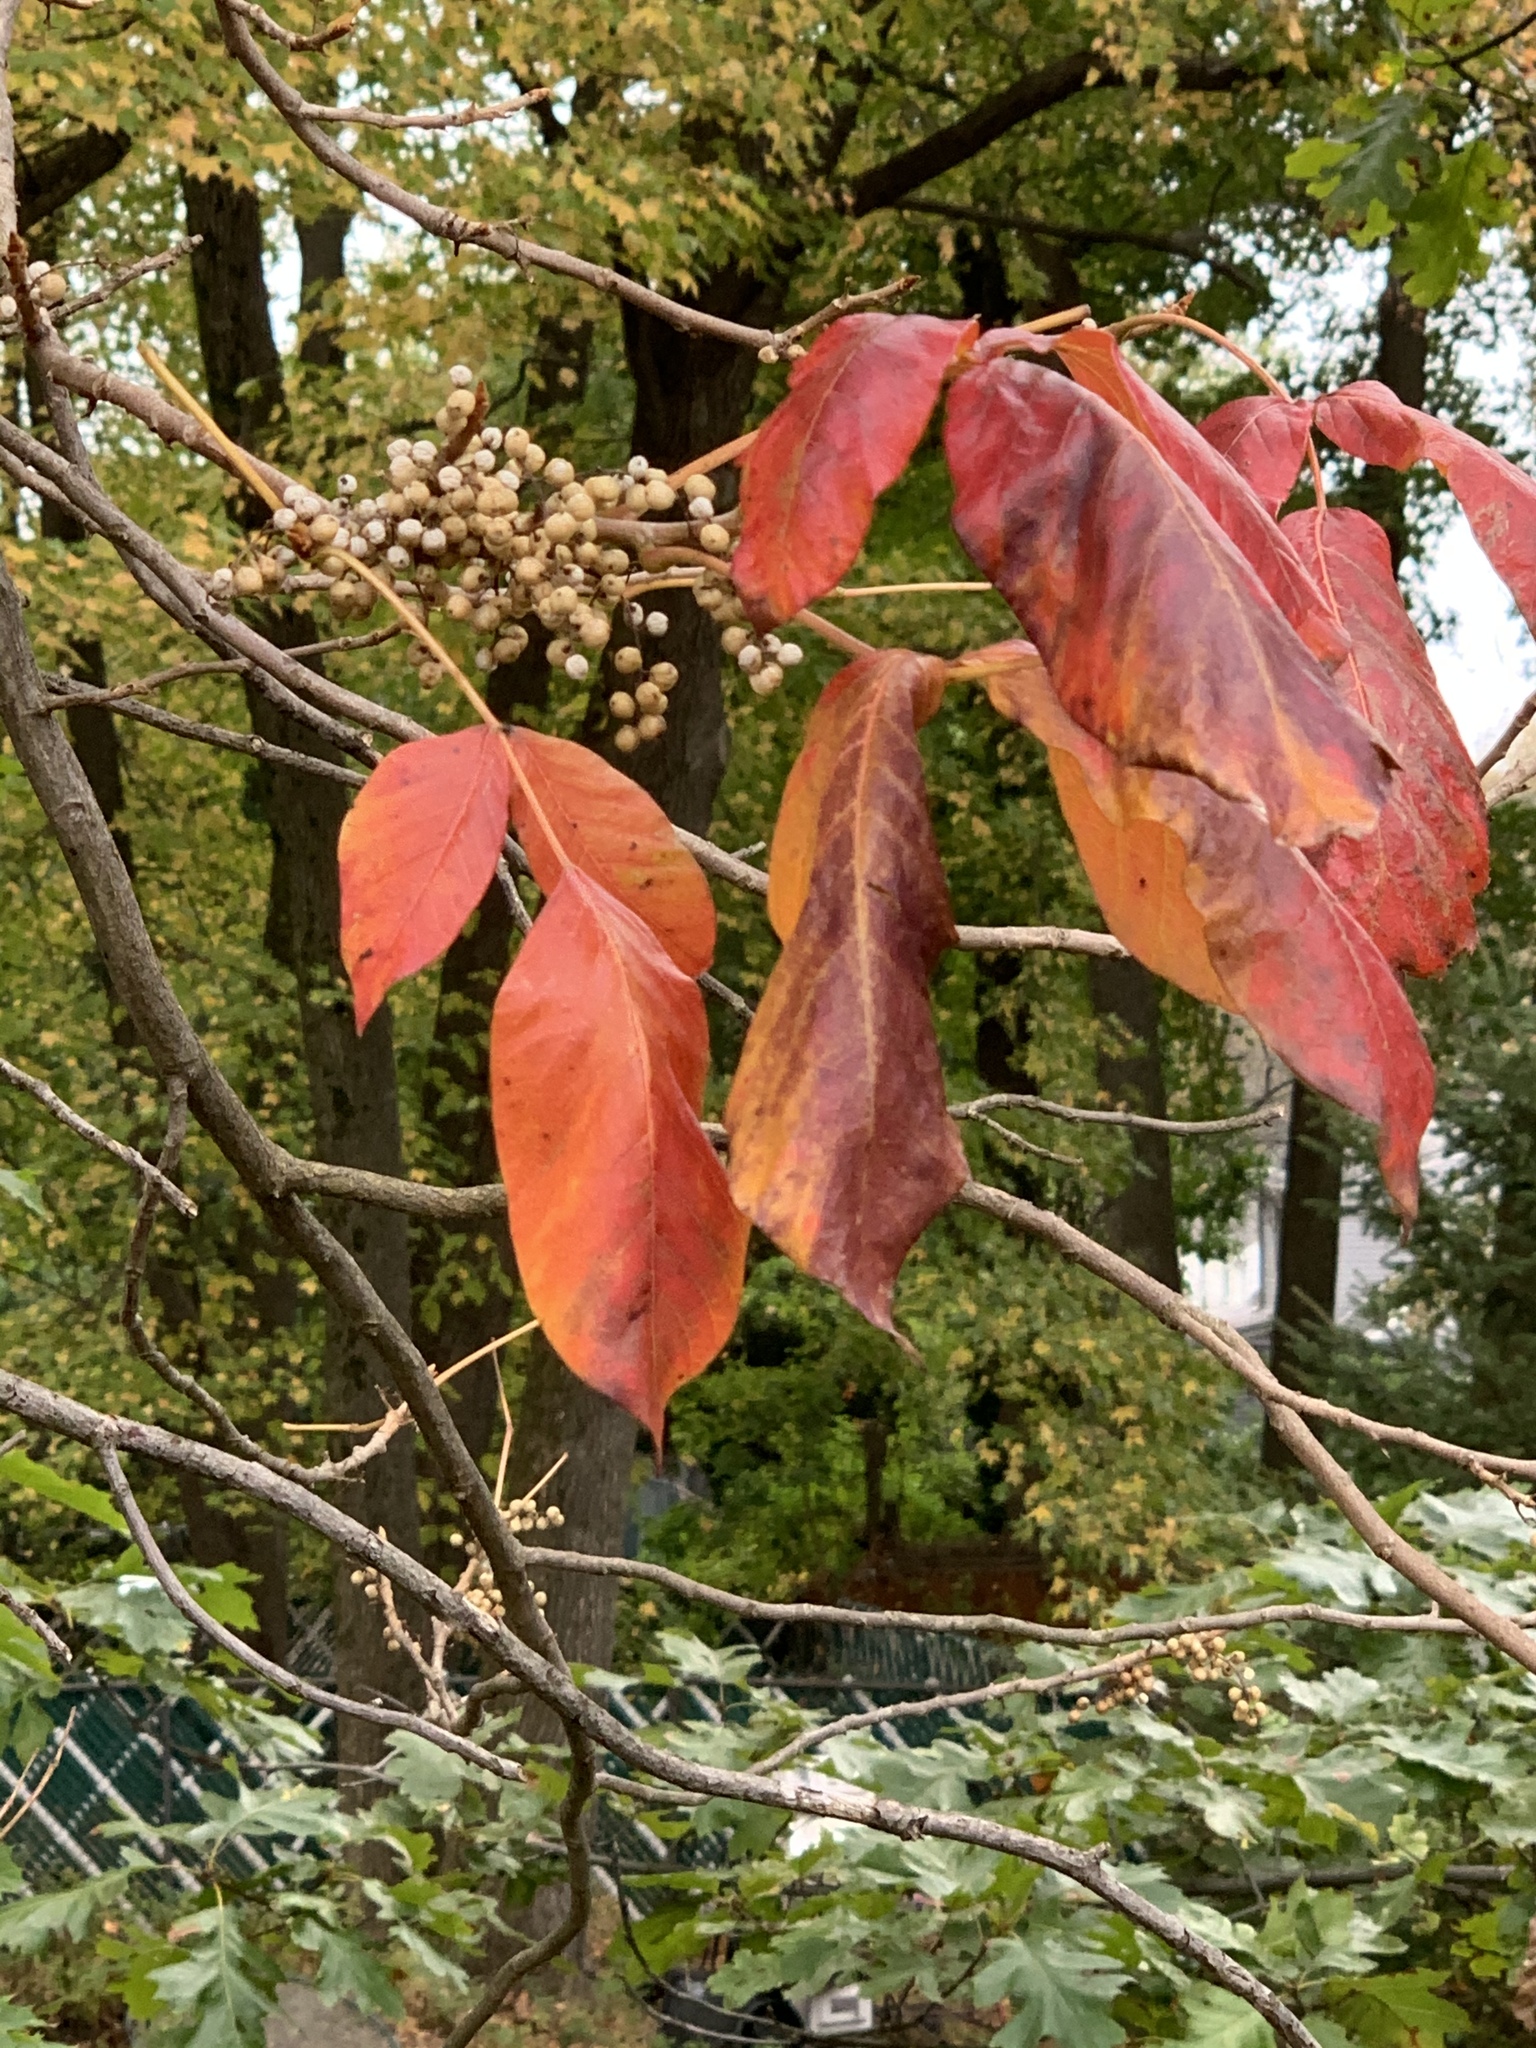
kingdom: Plantae
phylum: Tracheophyta
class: Magnoliopsida
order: Sapindales
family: Anacardiaceae
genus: Toxicodendron
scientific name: Toxicodendron radicans
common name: Poison ivy
